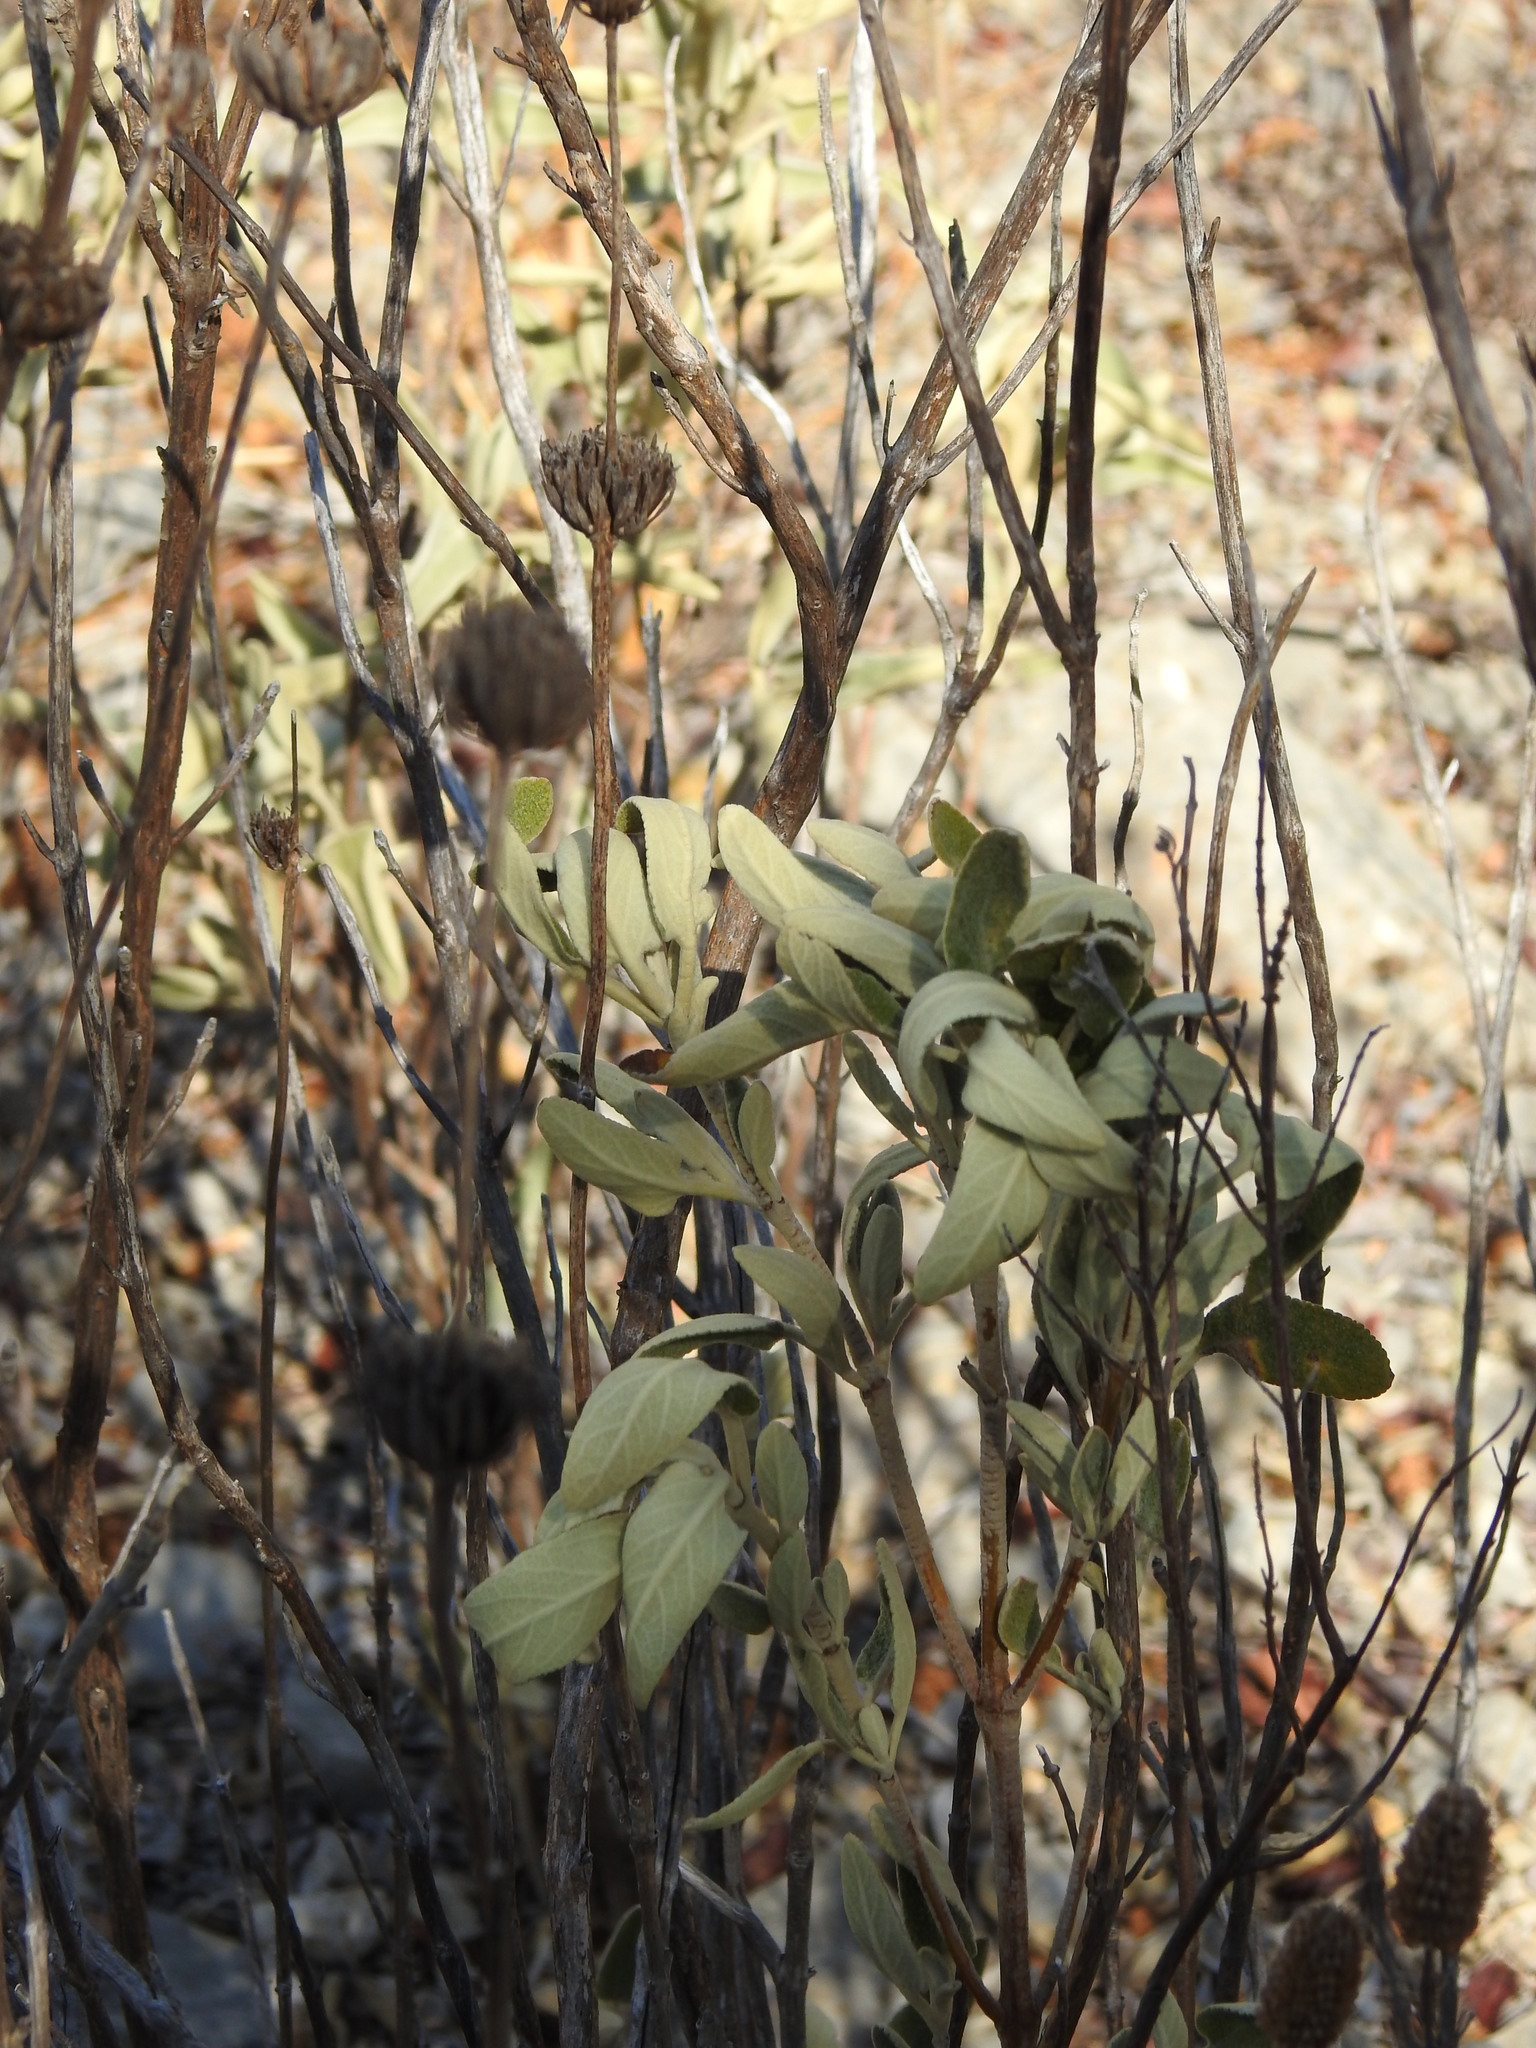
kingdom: Plantae
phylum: Tracheophyta
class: Magnoliopsida
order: Lamiales
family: Lamiaceae
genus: Phlomis
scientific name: Phlomis purpurea
